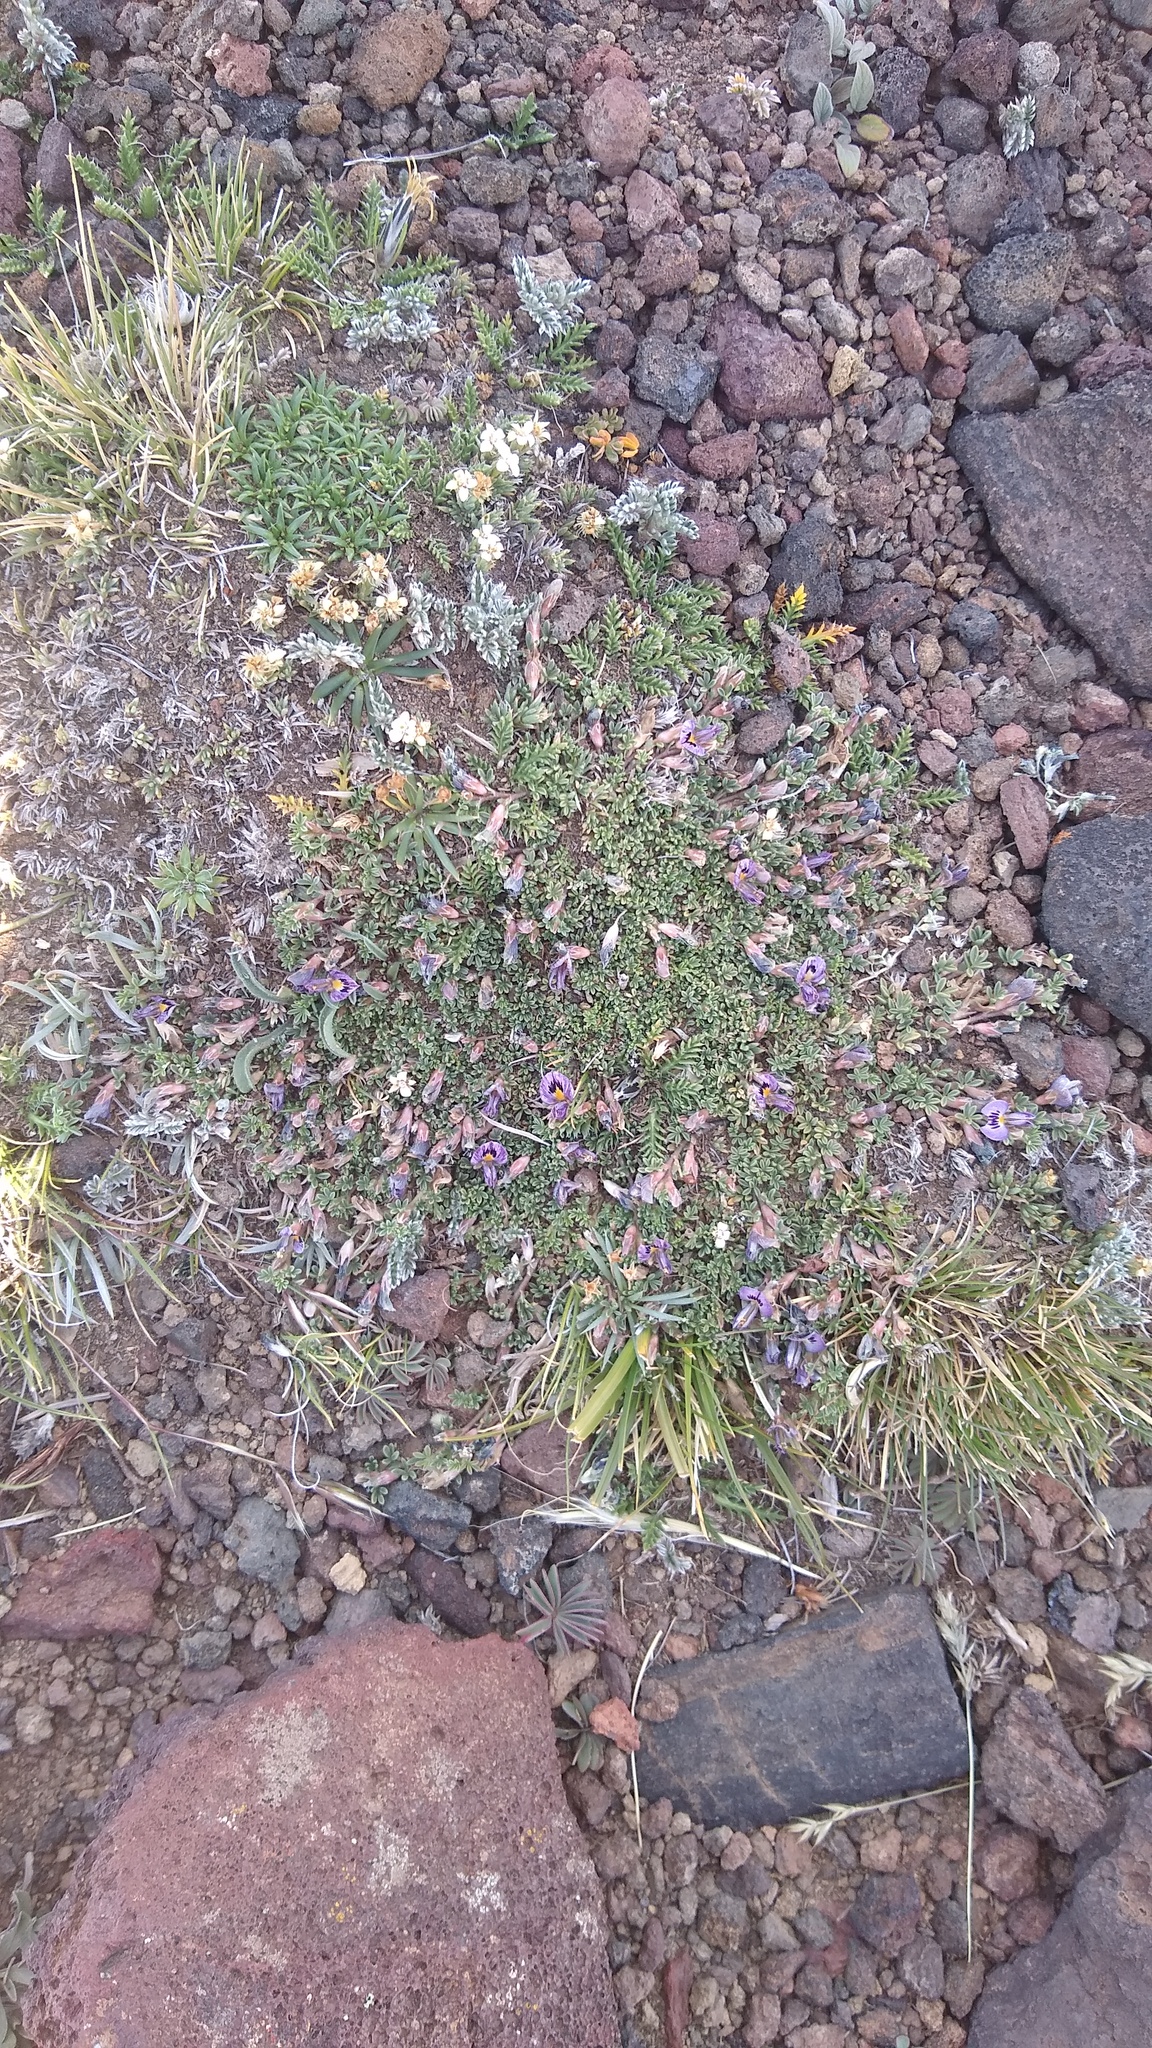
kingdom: Plantae
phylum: Tracheophyta
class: Magnoliopsida
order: Fabales
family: Fabaceae
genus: Adesmia
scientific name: Adesmia parvifolia
